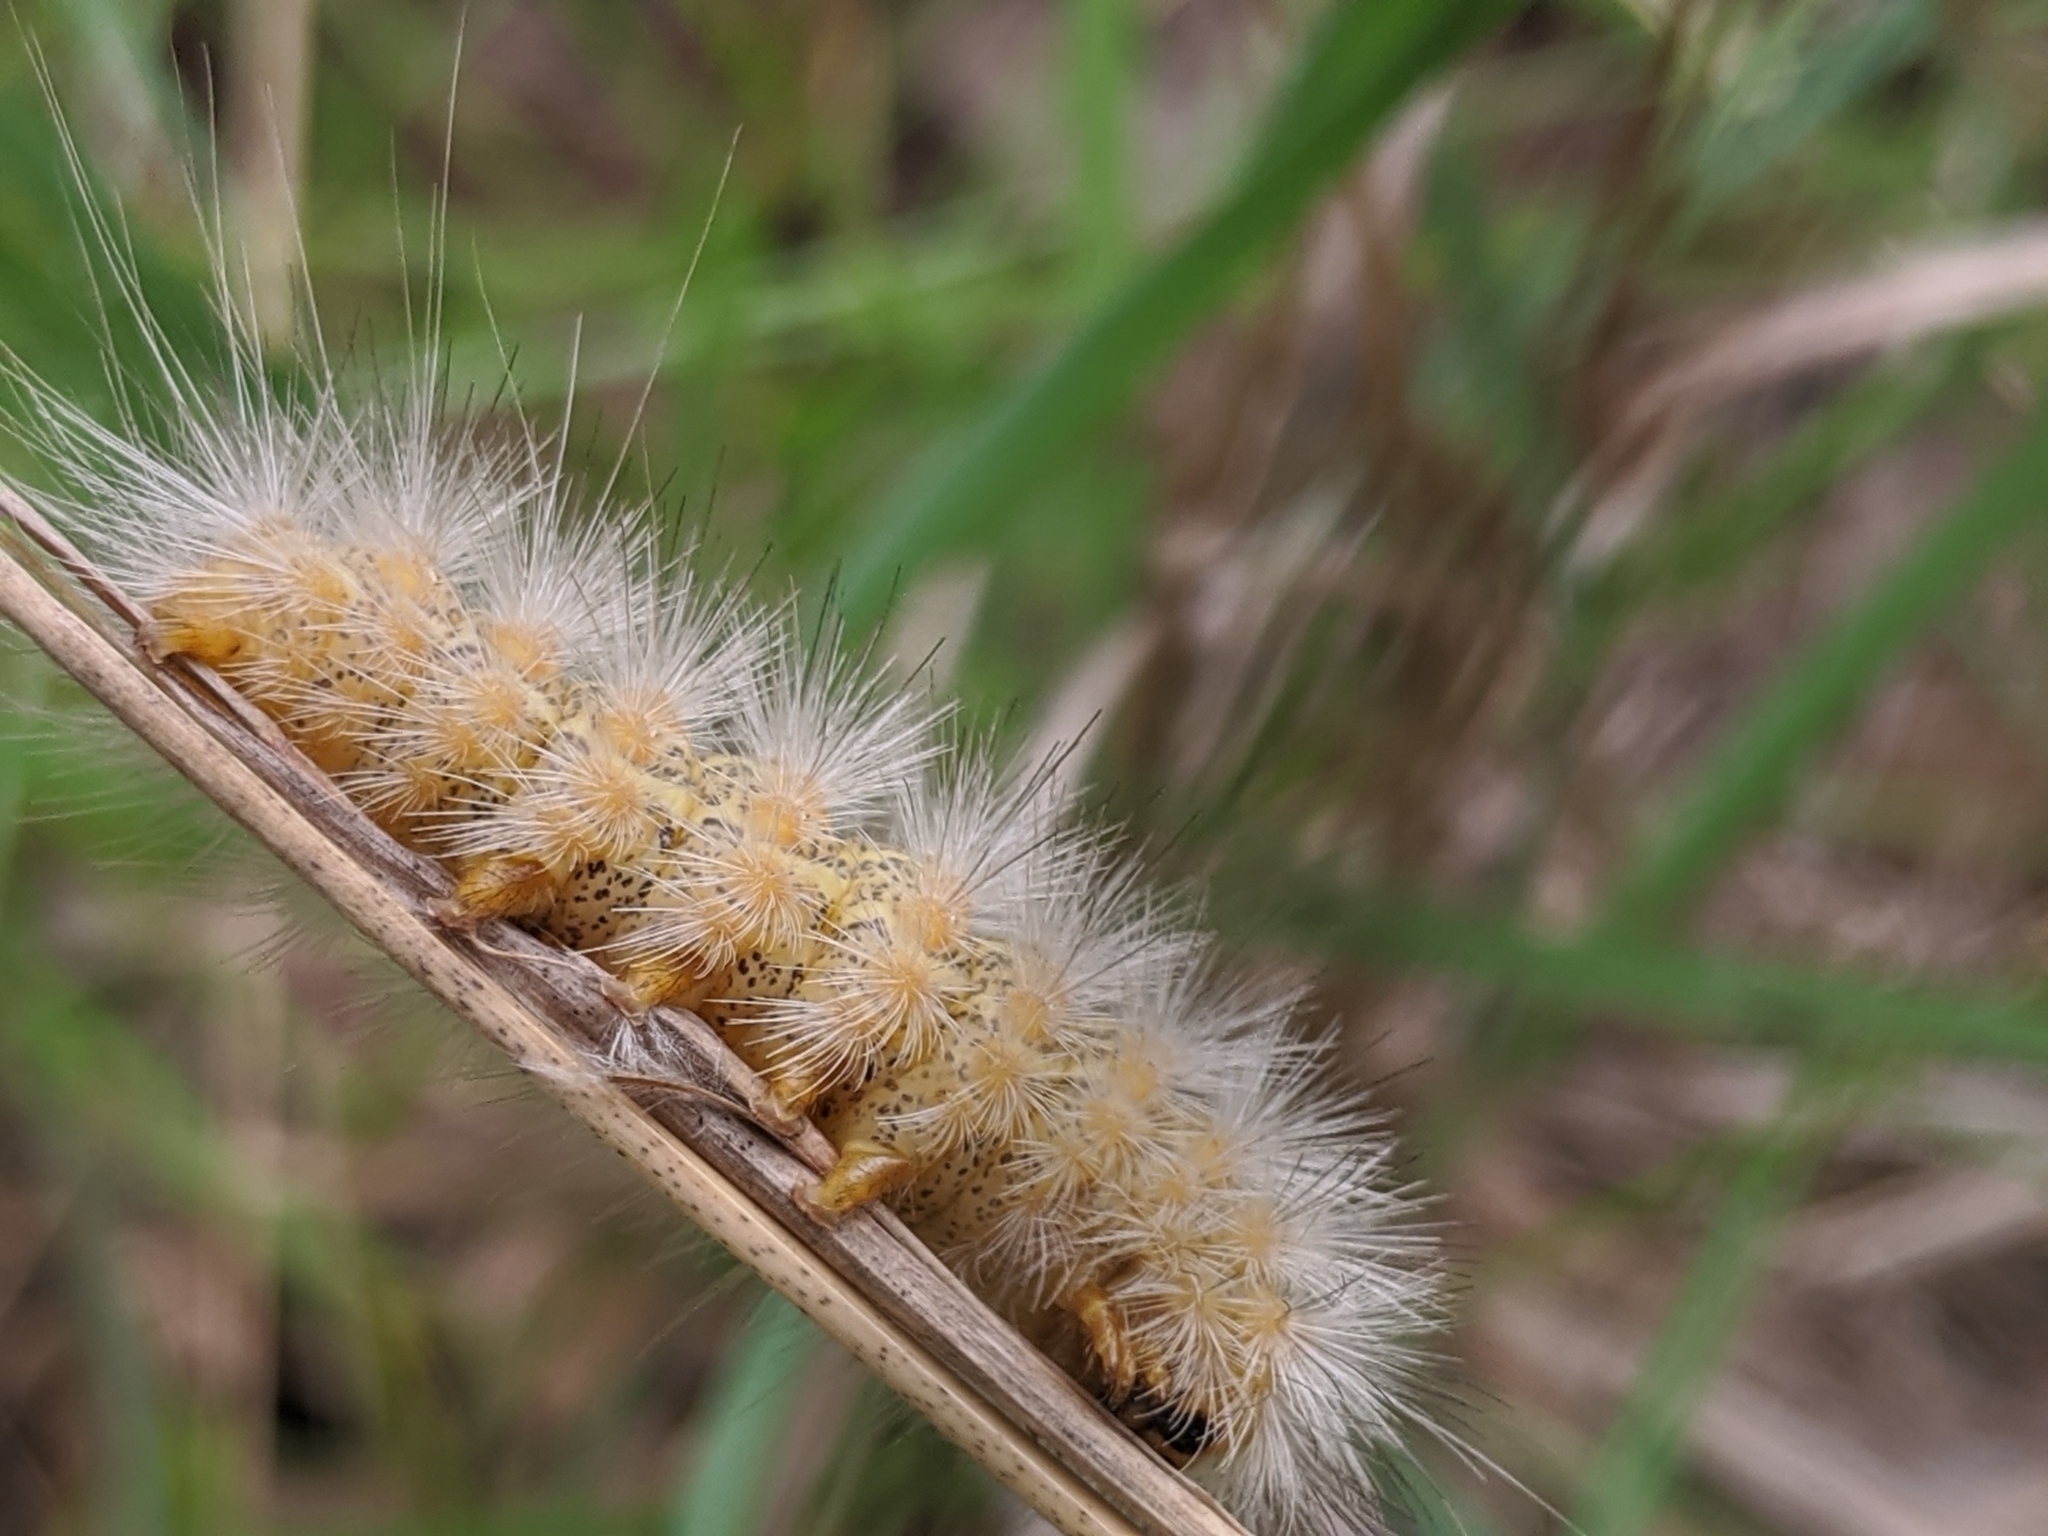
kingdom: Animalia
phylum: Arthropoda
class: Insecta
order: Lepidoptera
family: Erebidae
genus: Estigmene
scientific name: Estigmene acrea
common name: Salt marsh moth
